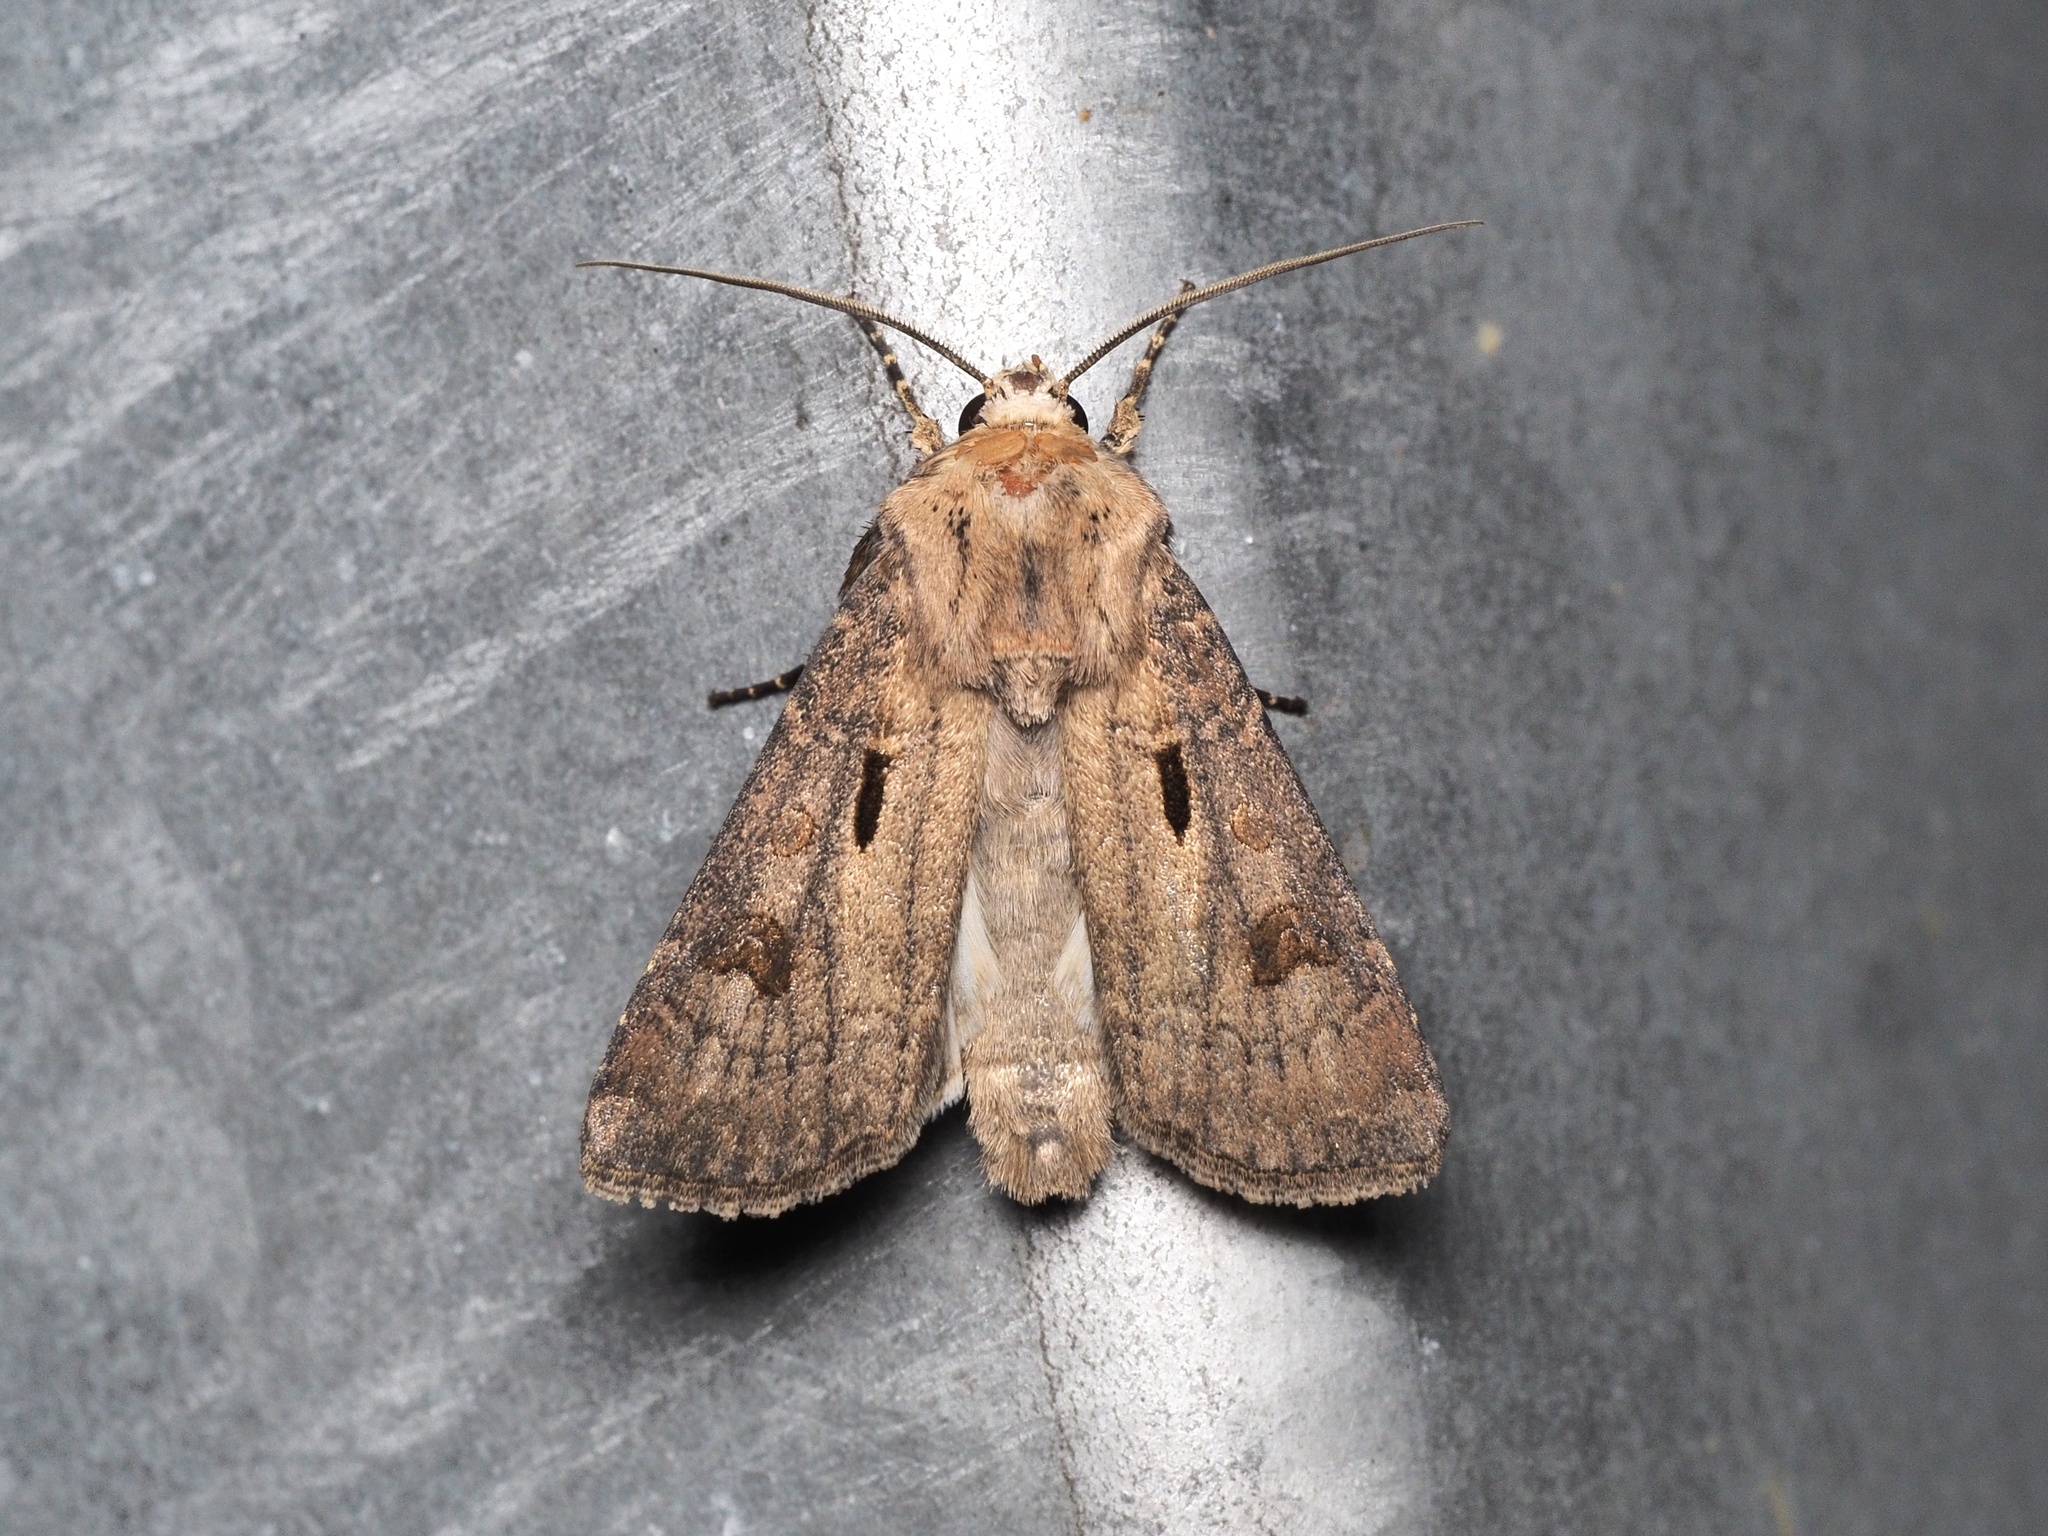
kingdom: Animalia
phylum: Arthropoda
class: Insecta
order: Lepidoptera
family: Noctuidae
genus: Agrotis
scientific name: Agrotis exclamationis
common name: Heart and dart
